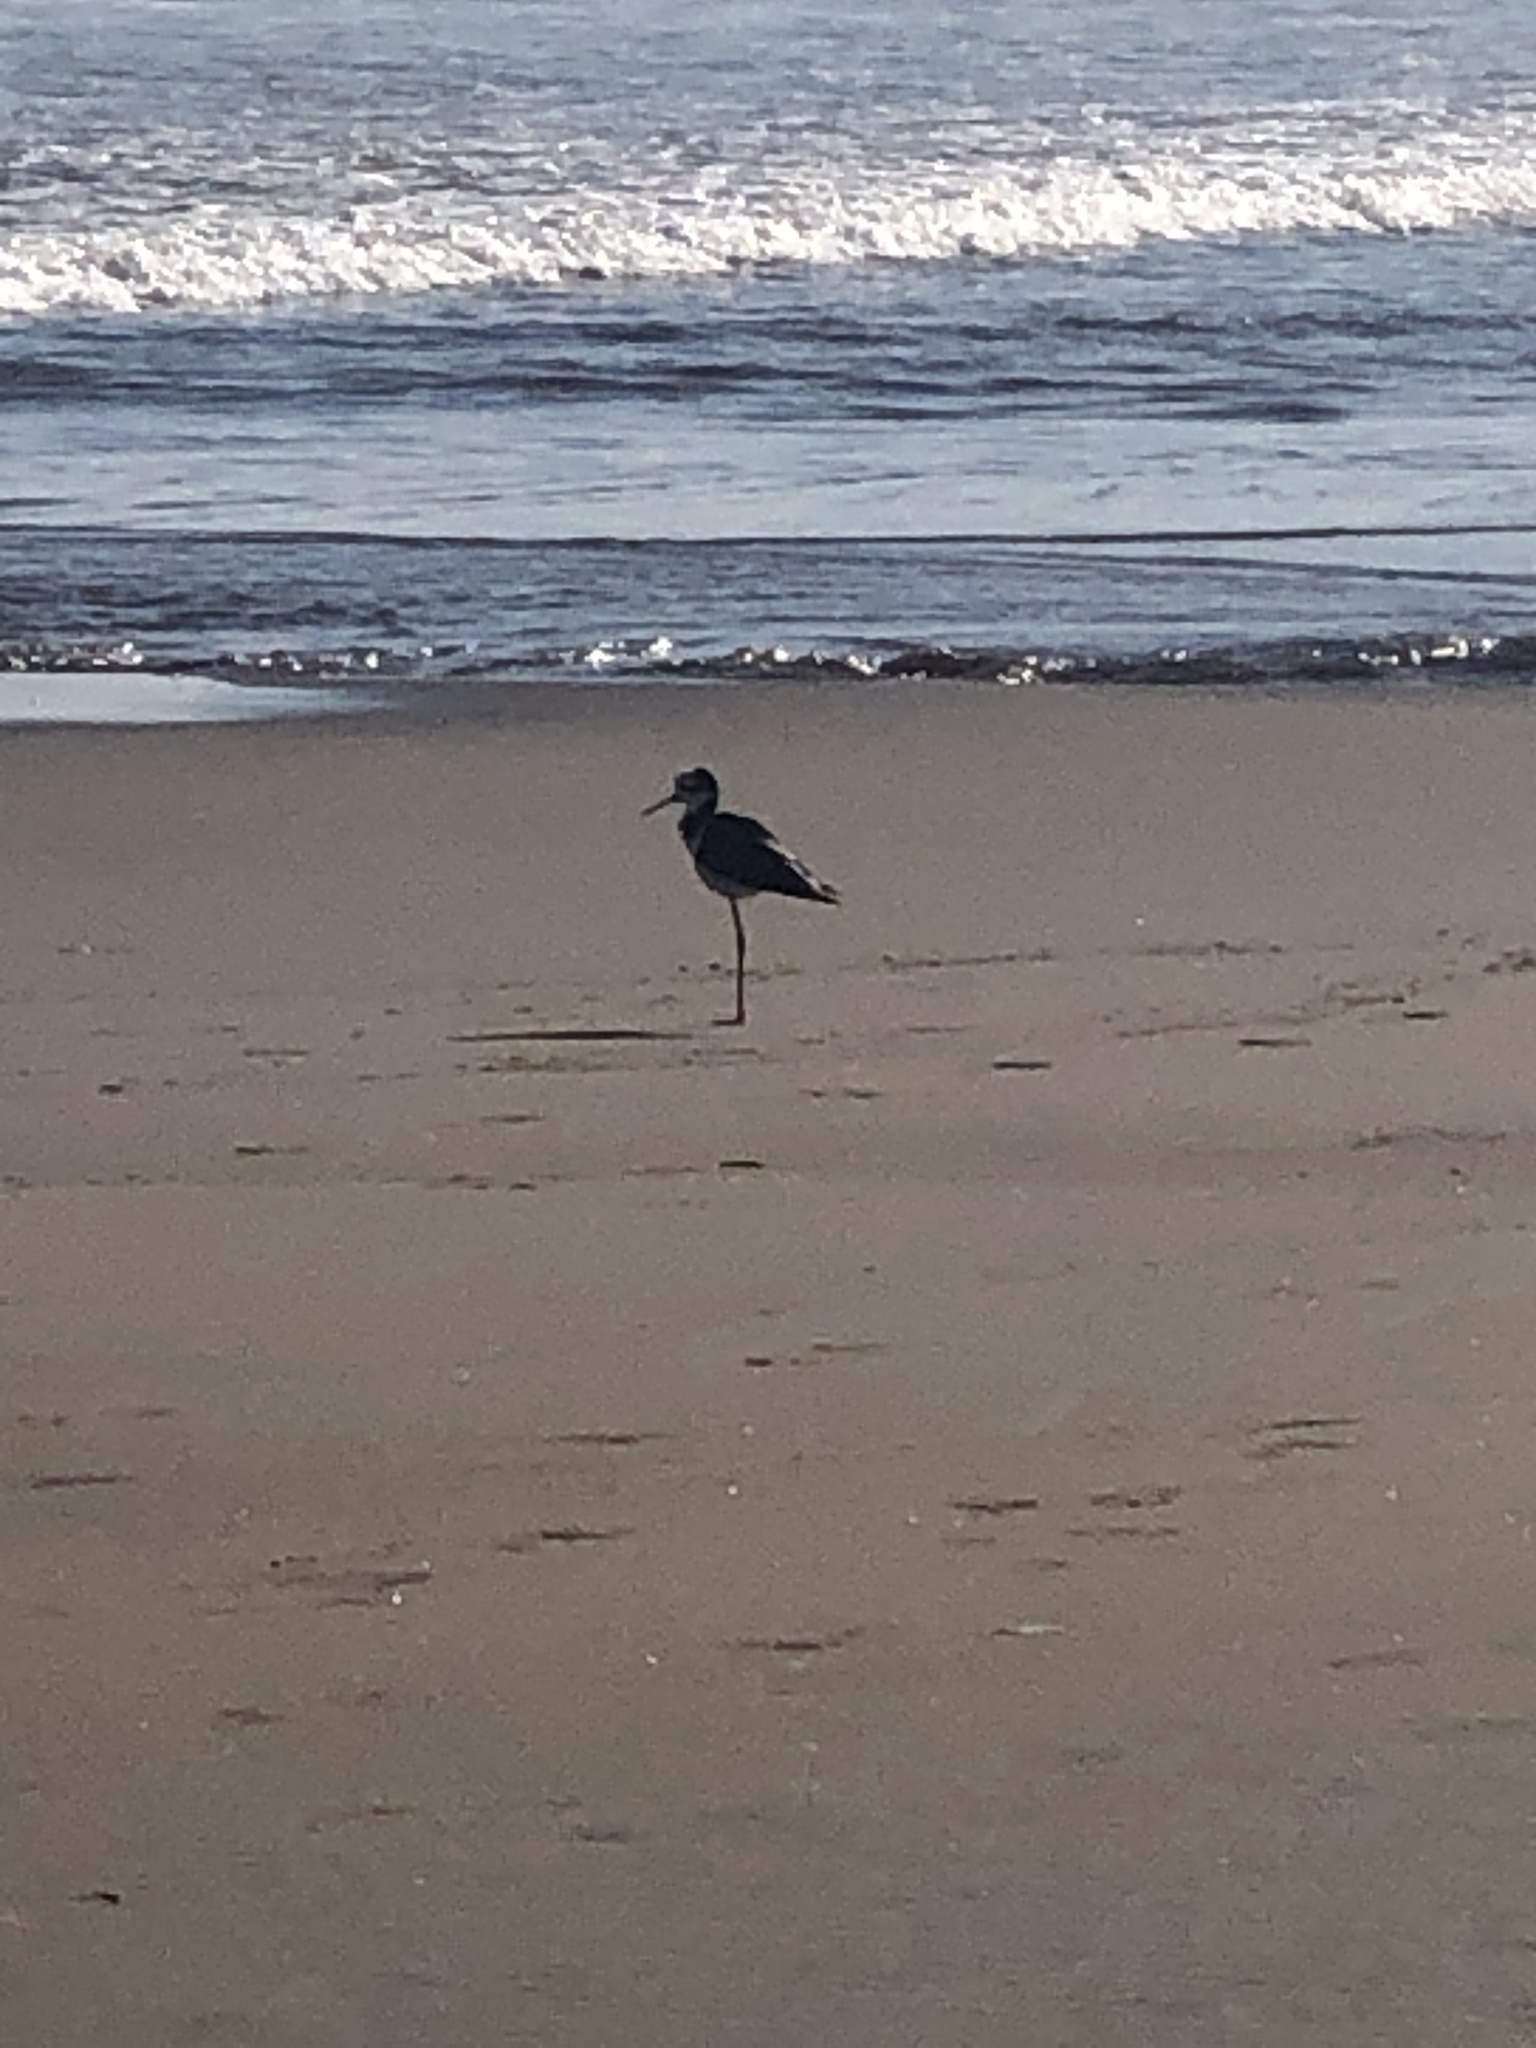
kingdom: Animalia
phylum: Chordata
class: Aves
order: Charadriiformes
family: Recurvirostridae
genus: Himantopus
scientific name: Himantopus mexicanus
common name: Black-necked stilt
